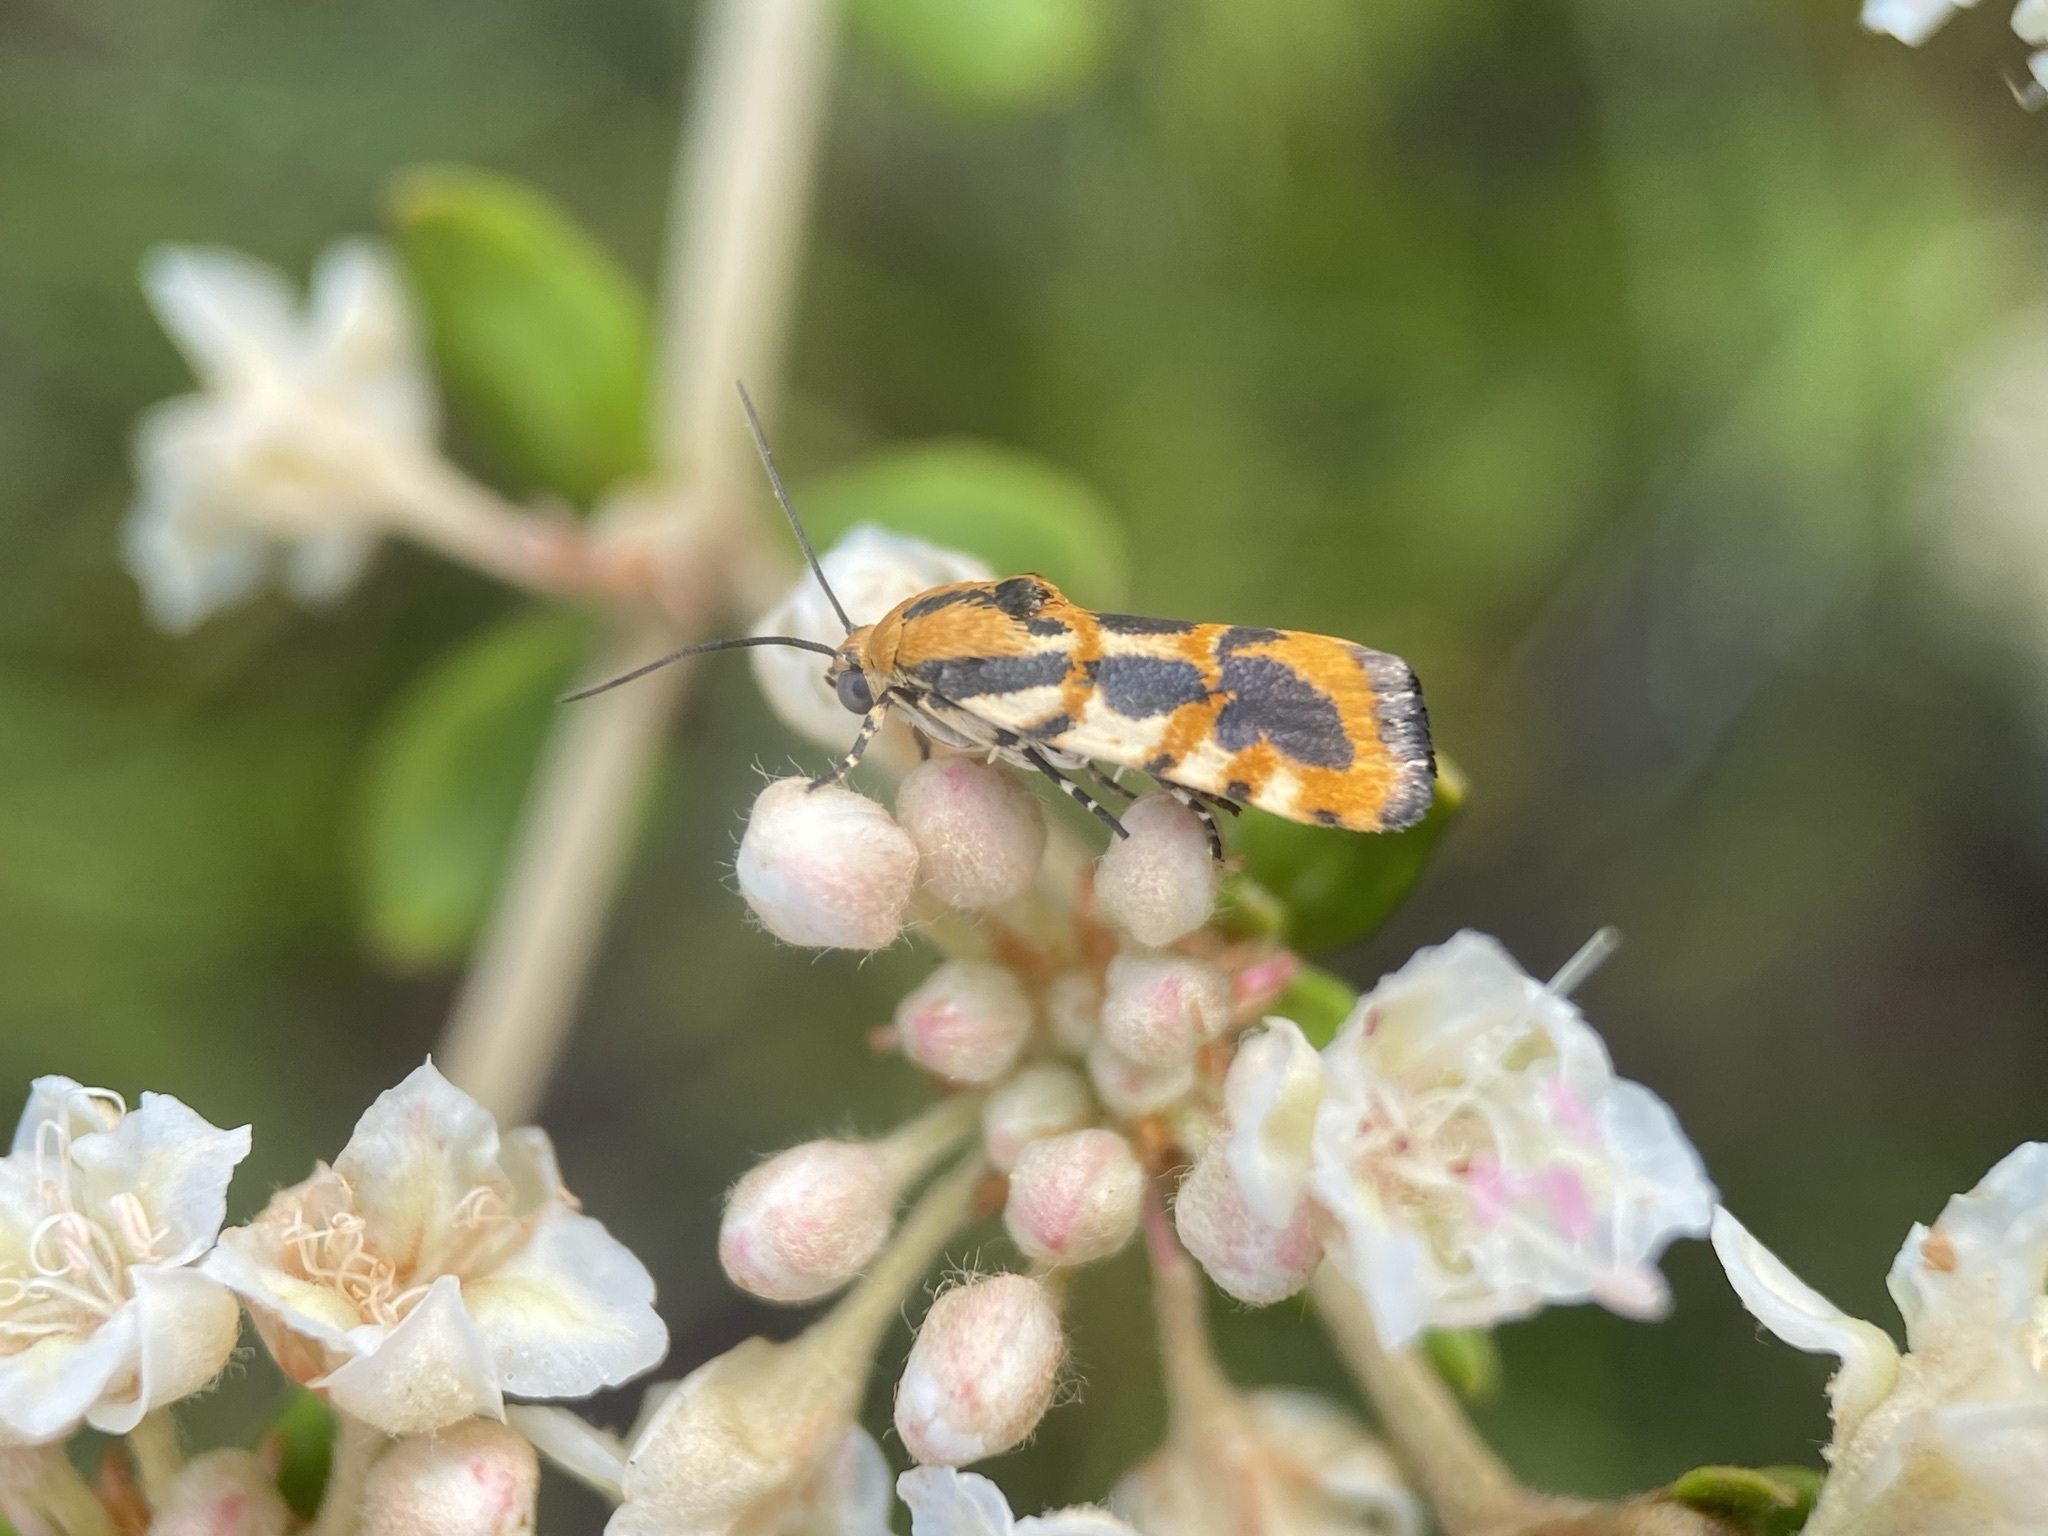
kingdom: Animalia
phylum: Arthropoda
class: Insecta
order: Lepidoptera
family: Noctuidae
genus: Acontia
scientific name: Acontia leo
